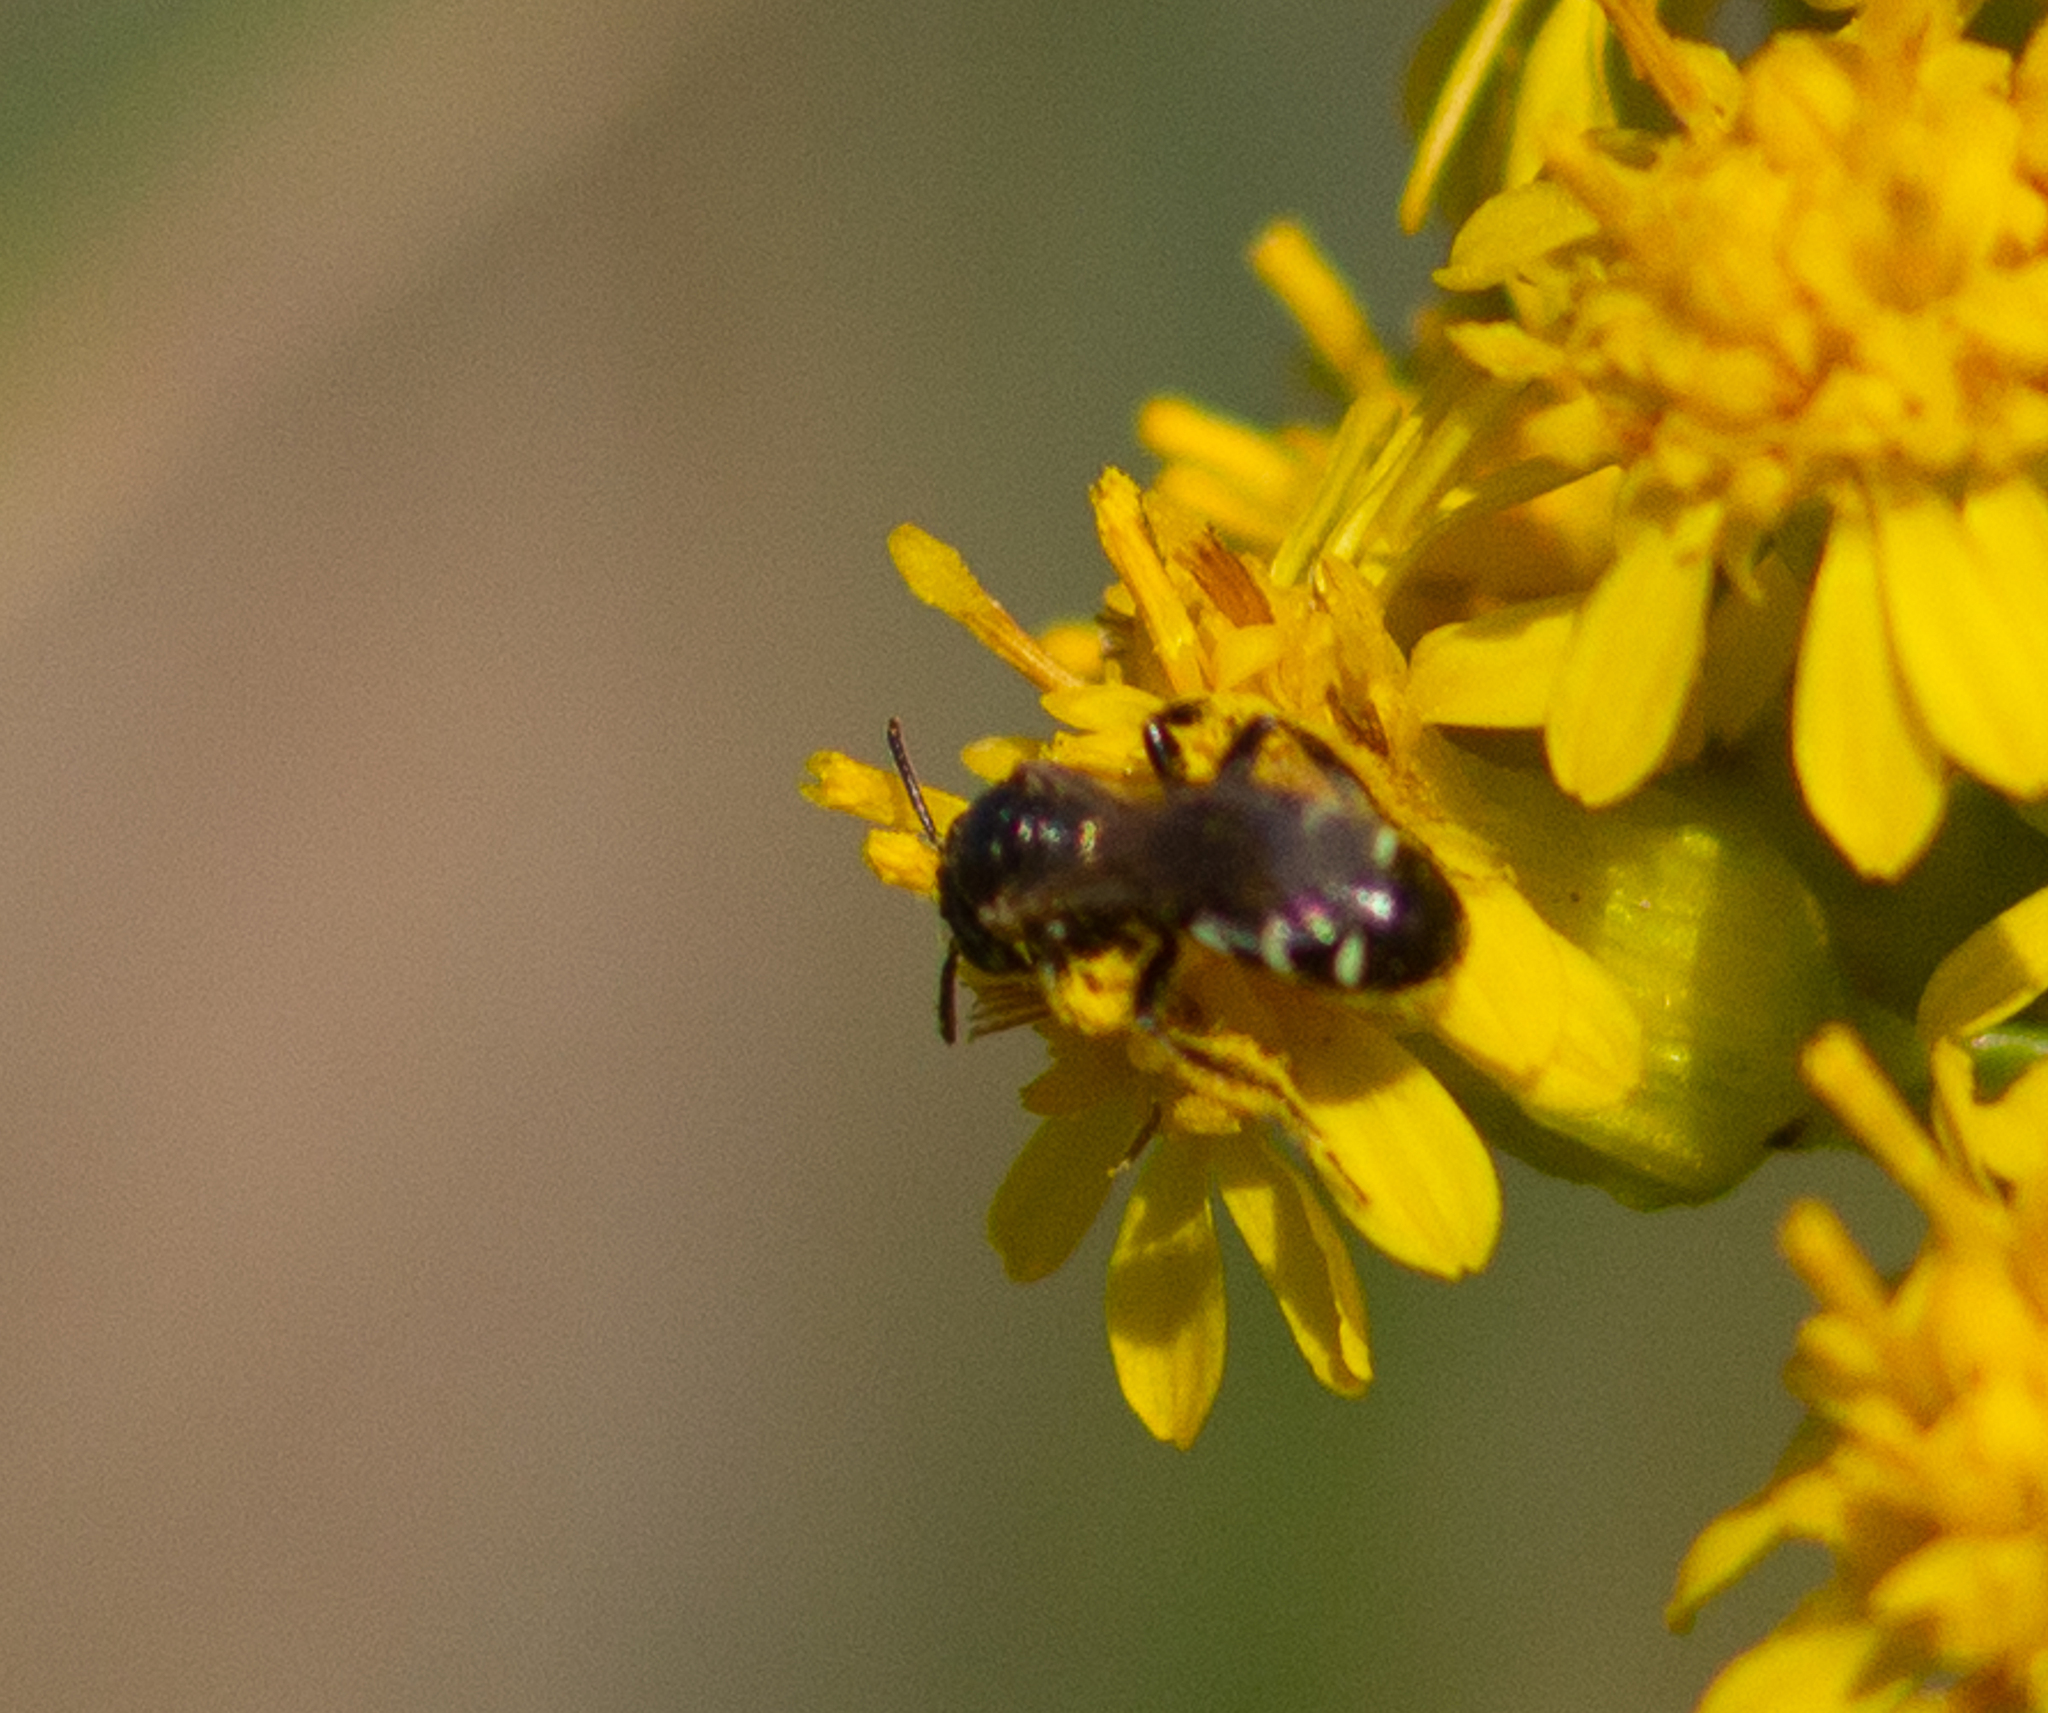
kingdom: Animalia
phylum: Arthropoda
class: Insecta
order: Hymenoptera
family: Andrenidae
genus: Perdita
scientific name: Perdita octomaculata
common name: Eight-spotted miner bee
